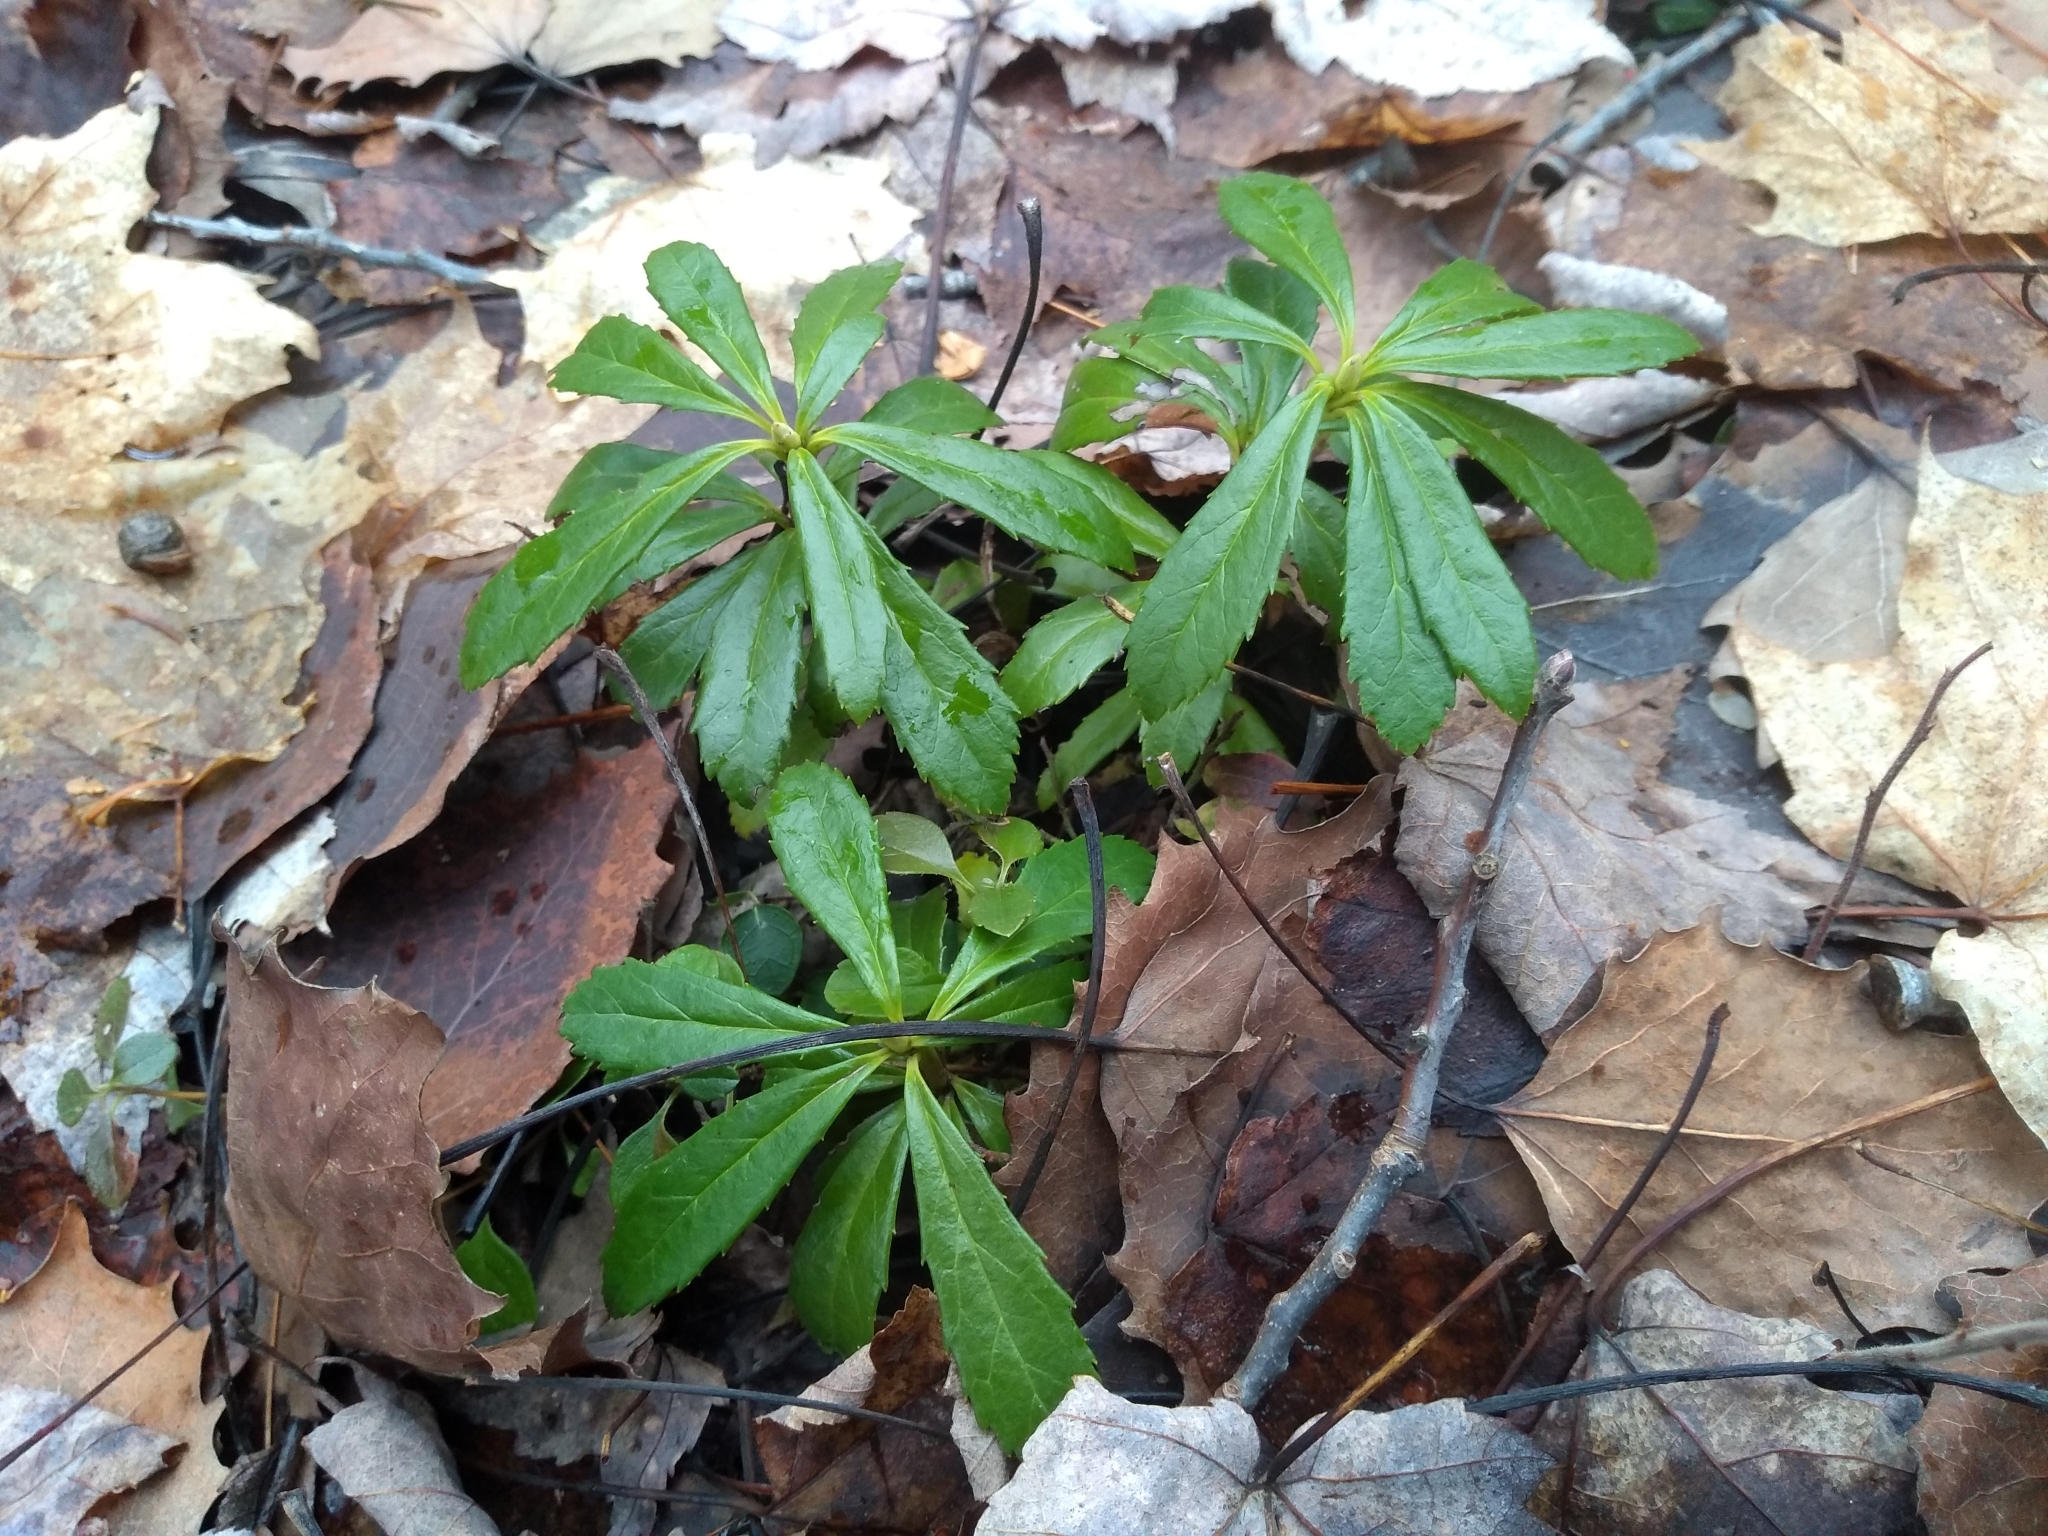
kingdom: Plantae
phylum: Tracheophyta
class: Magnoliopsida
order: Ericales
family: Ericaceae
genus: Chimaphila
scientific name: Chimaphila umbellata
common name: Pipsissewa
